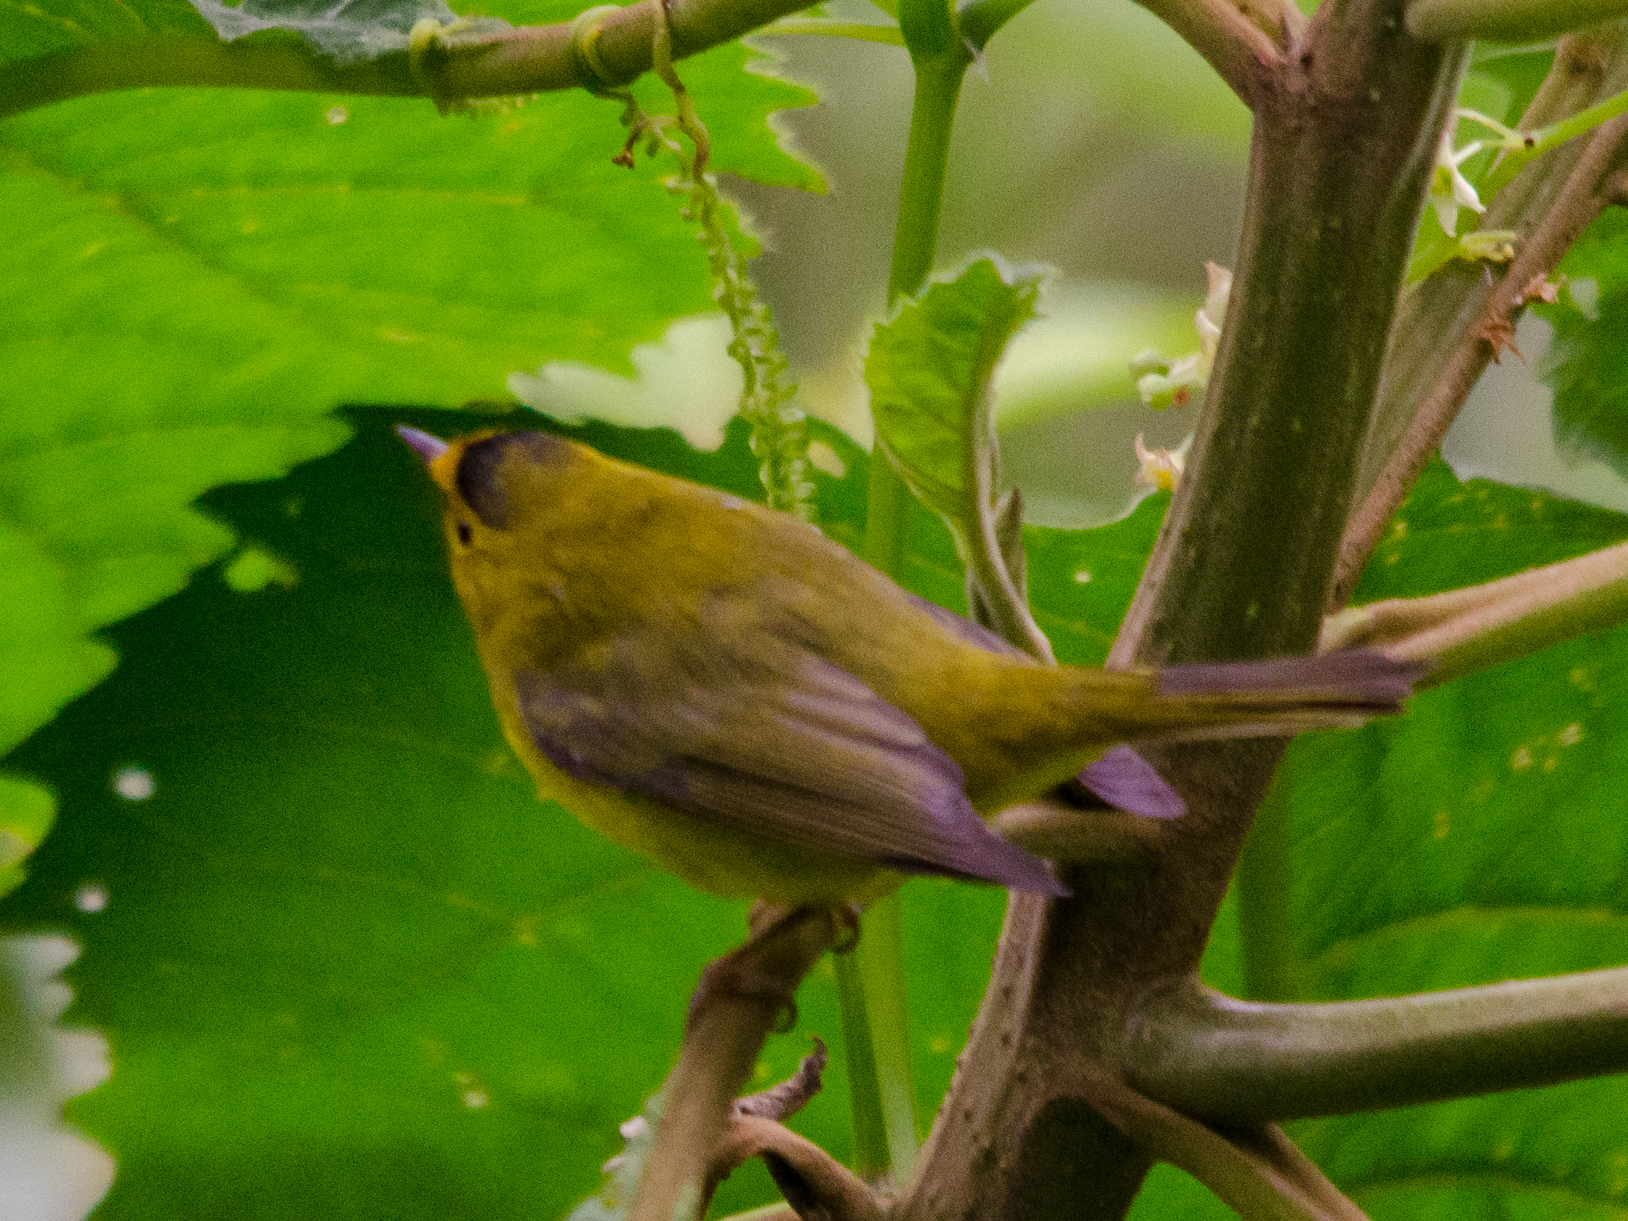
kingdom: Animalia
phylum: Chordata
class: Aves
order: Passeriformes
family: Parulidae
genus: Cardellina
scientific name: Cardellina pusilla
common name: Wilson's warbler
